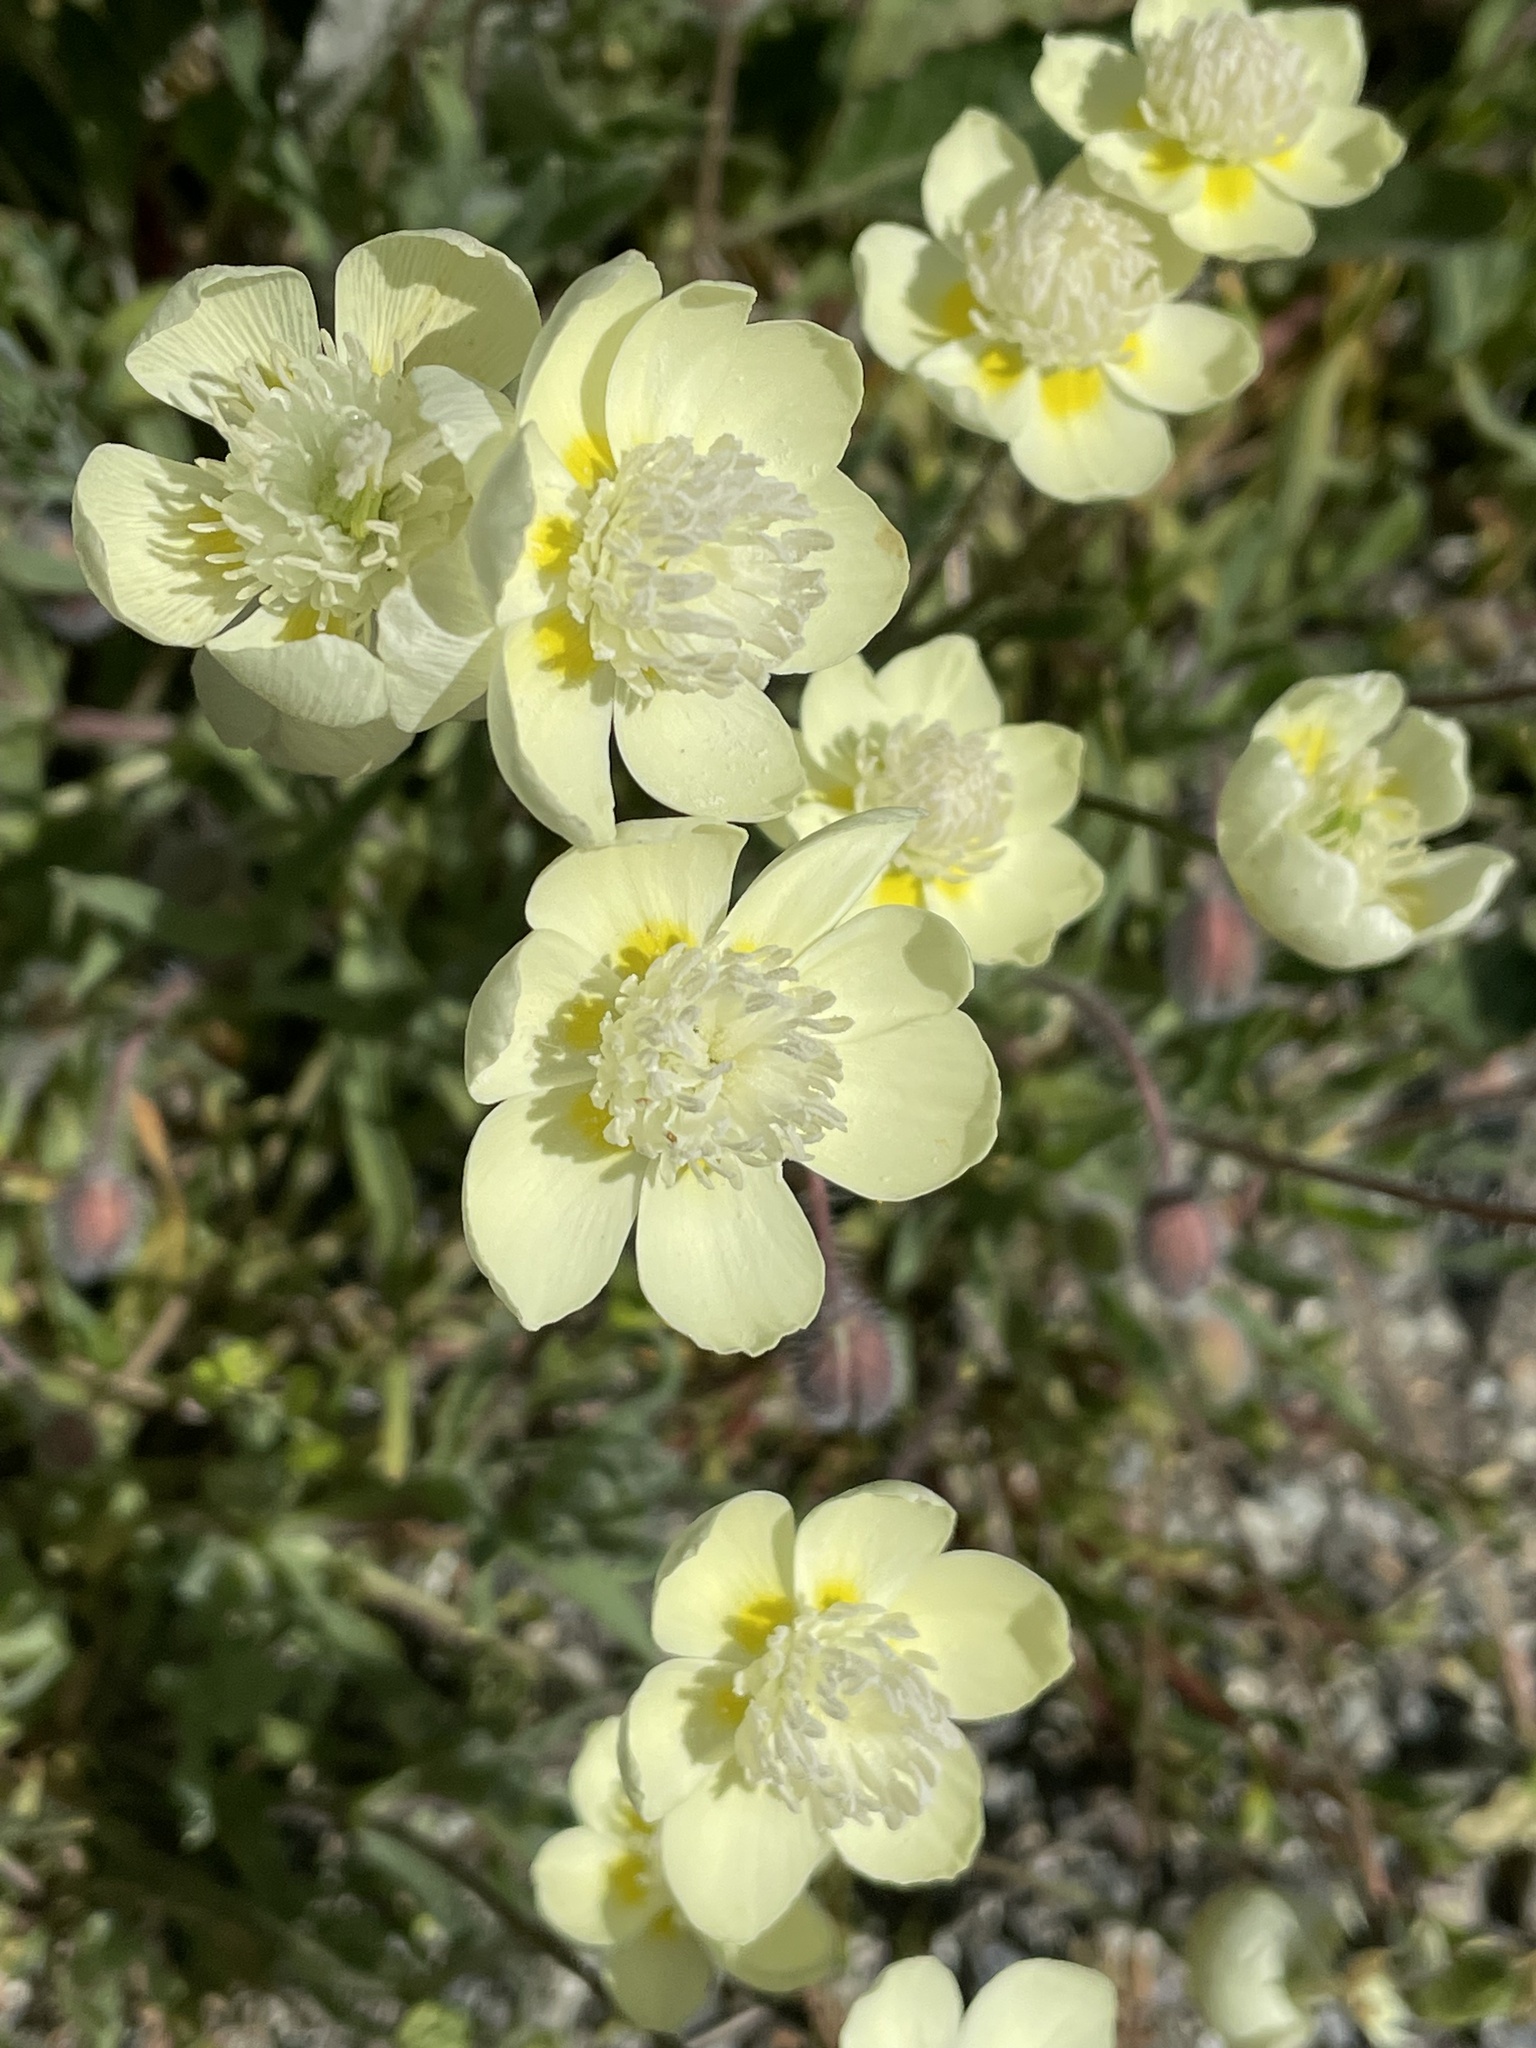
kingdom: Plantae
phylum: Tracheophyta
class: Magnoliopsida
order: Ranunculales
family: Papaveraceae
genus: Platystemon
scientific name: Platystemon californicus
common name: Cream-cups
